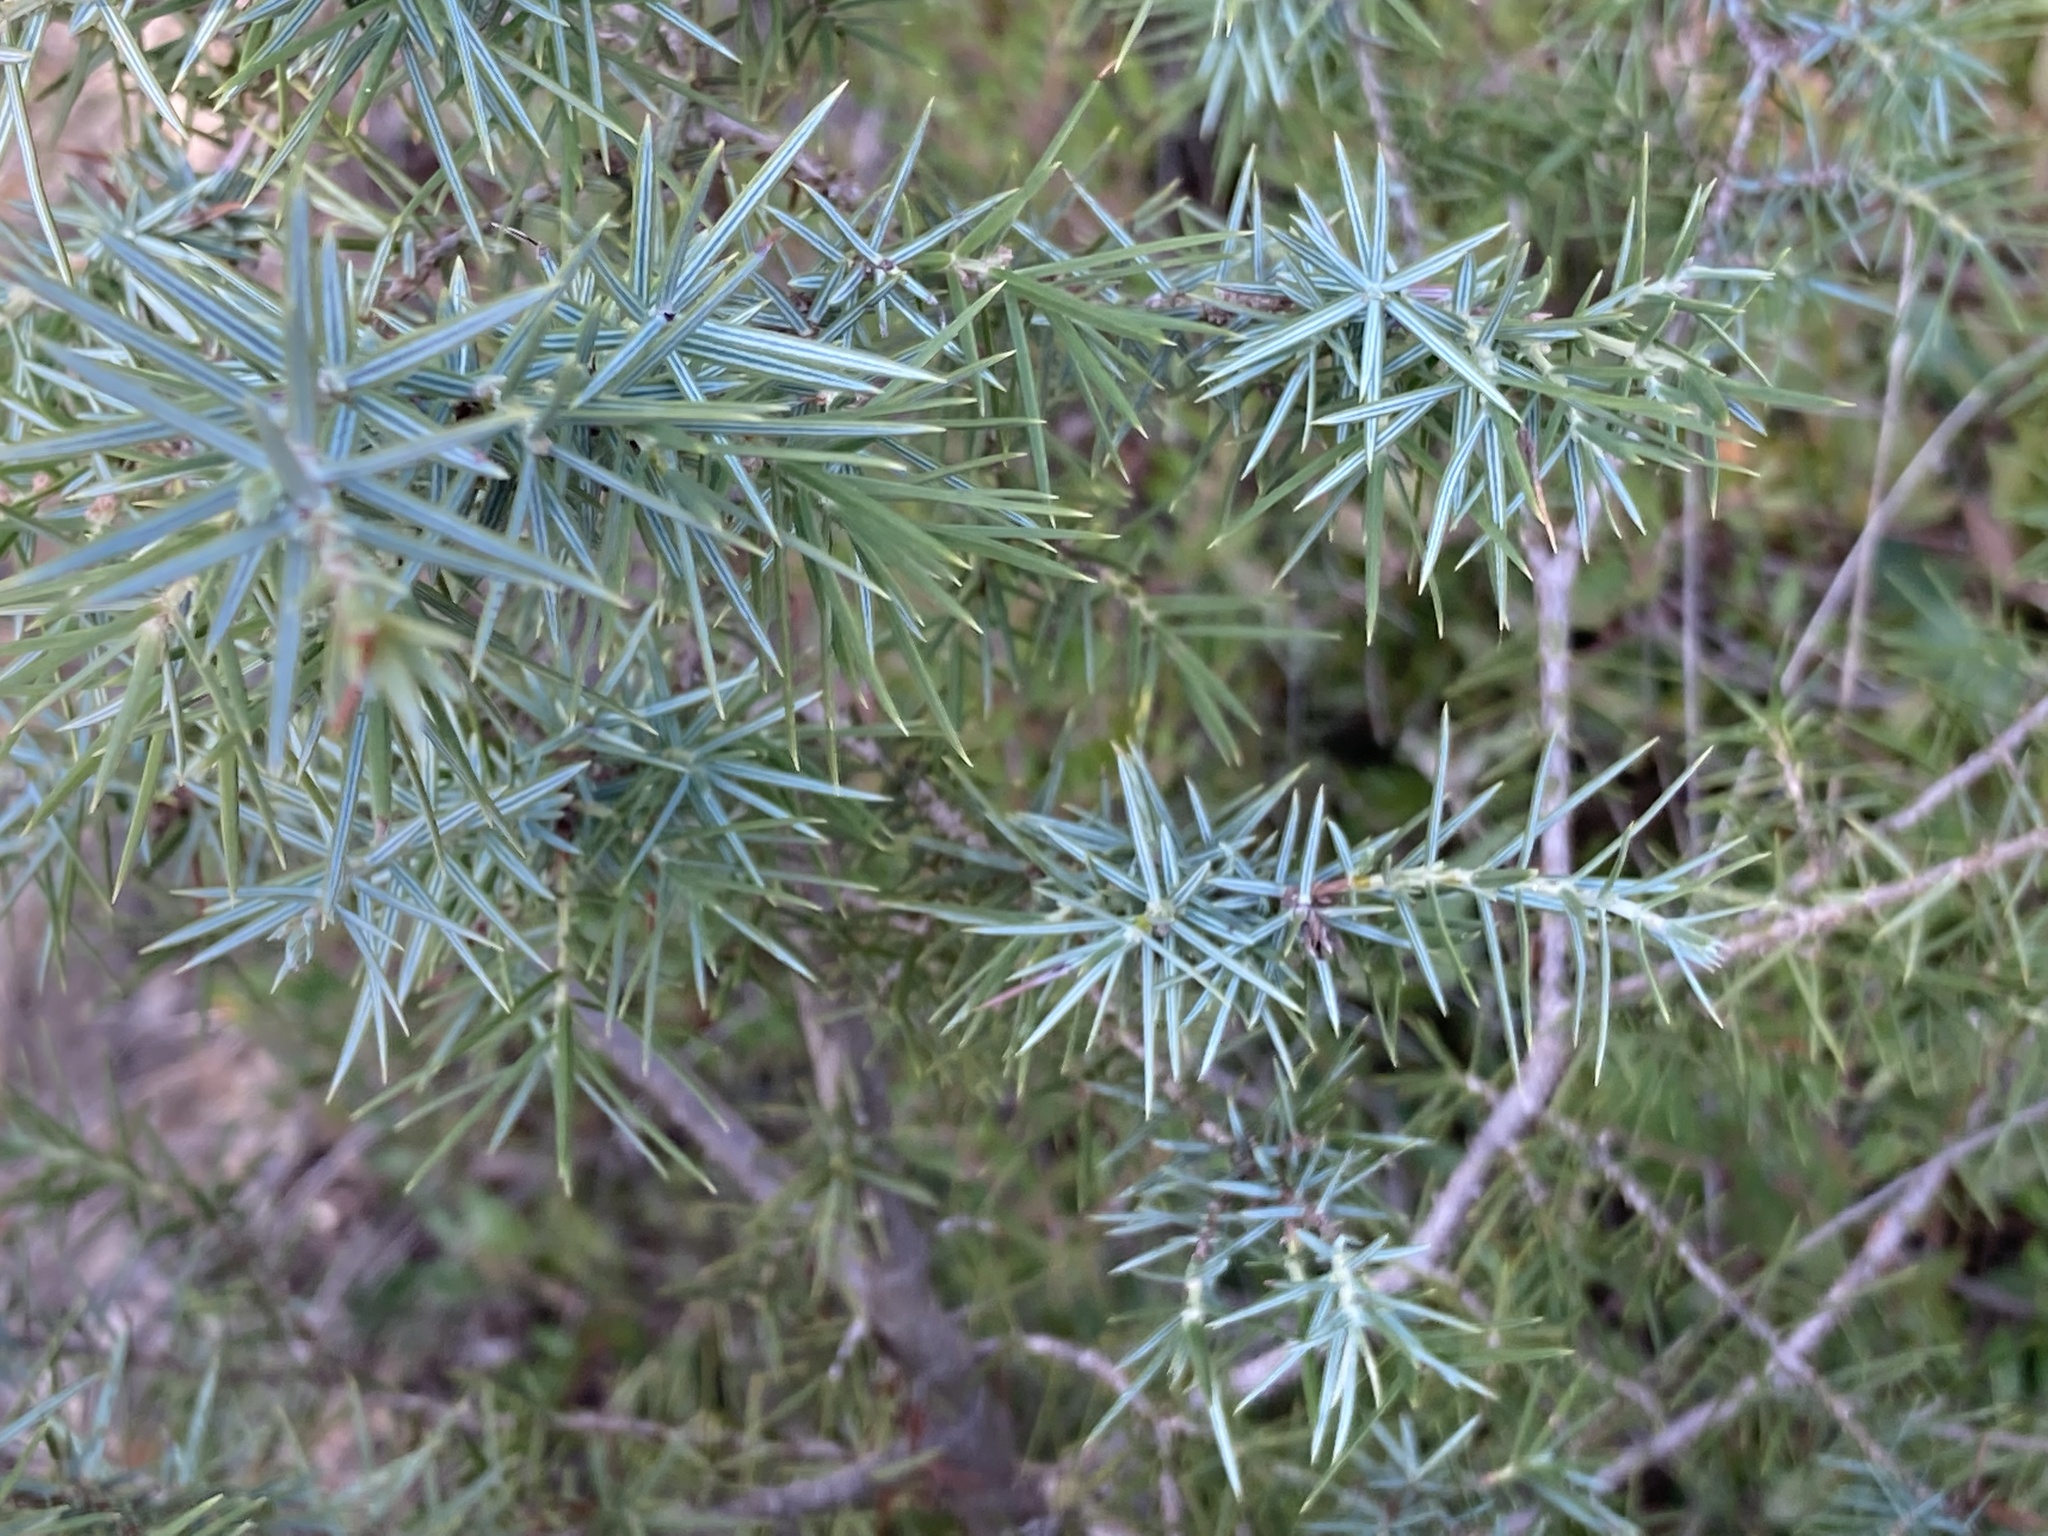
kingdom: Plantae
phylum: Tracheophyta
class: Pinopsida
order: Pinales
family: Cupressaceae
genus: Juniperus
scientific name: Juniperus oxycedrus
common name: Prickly juniper
